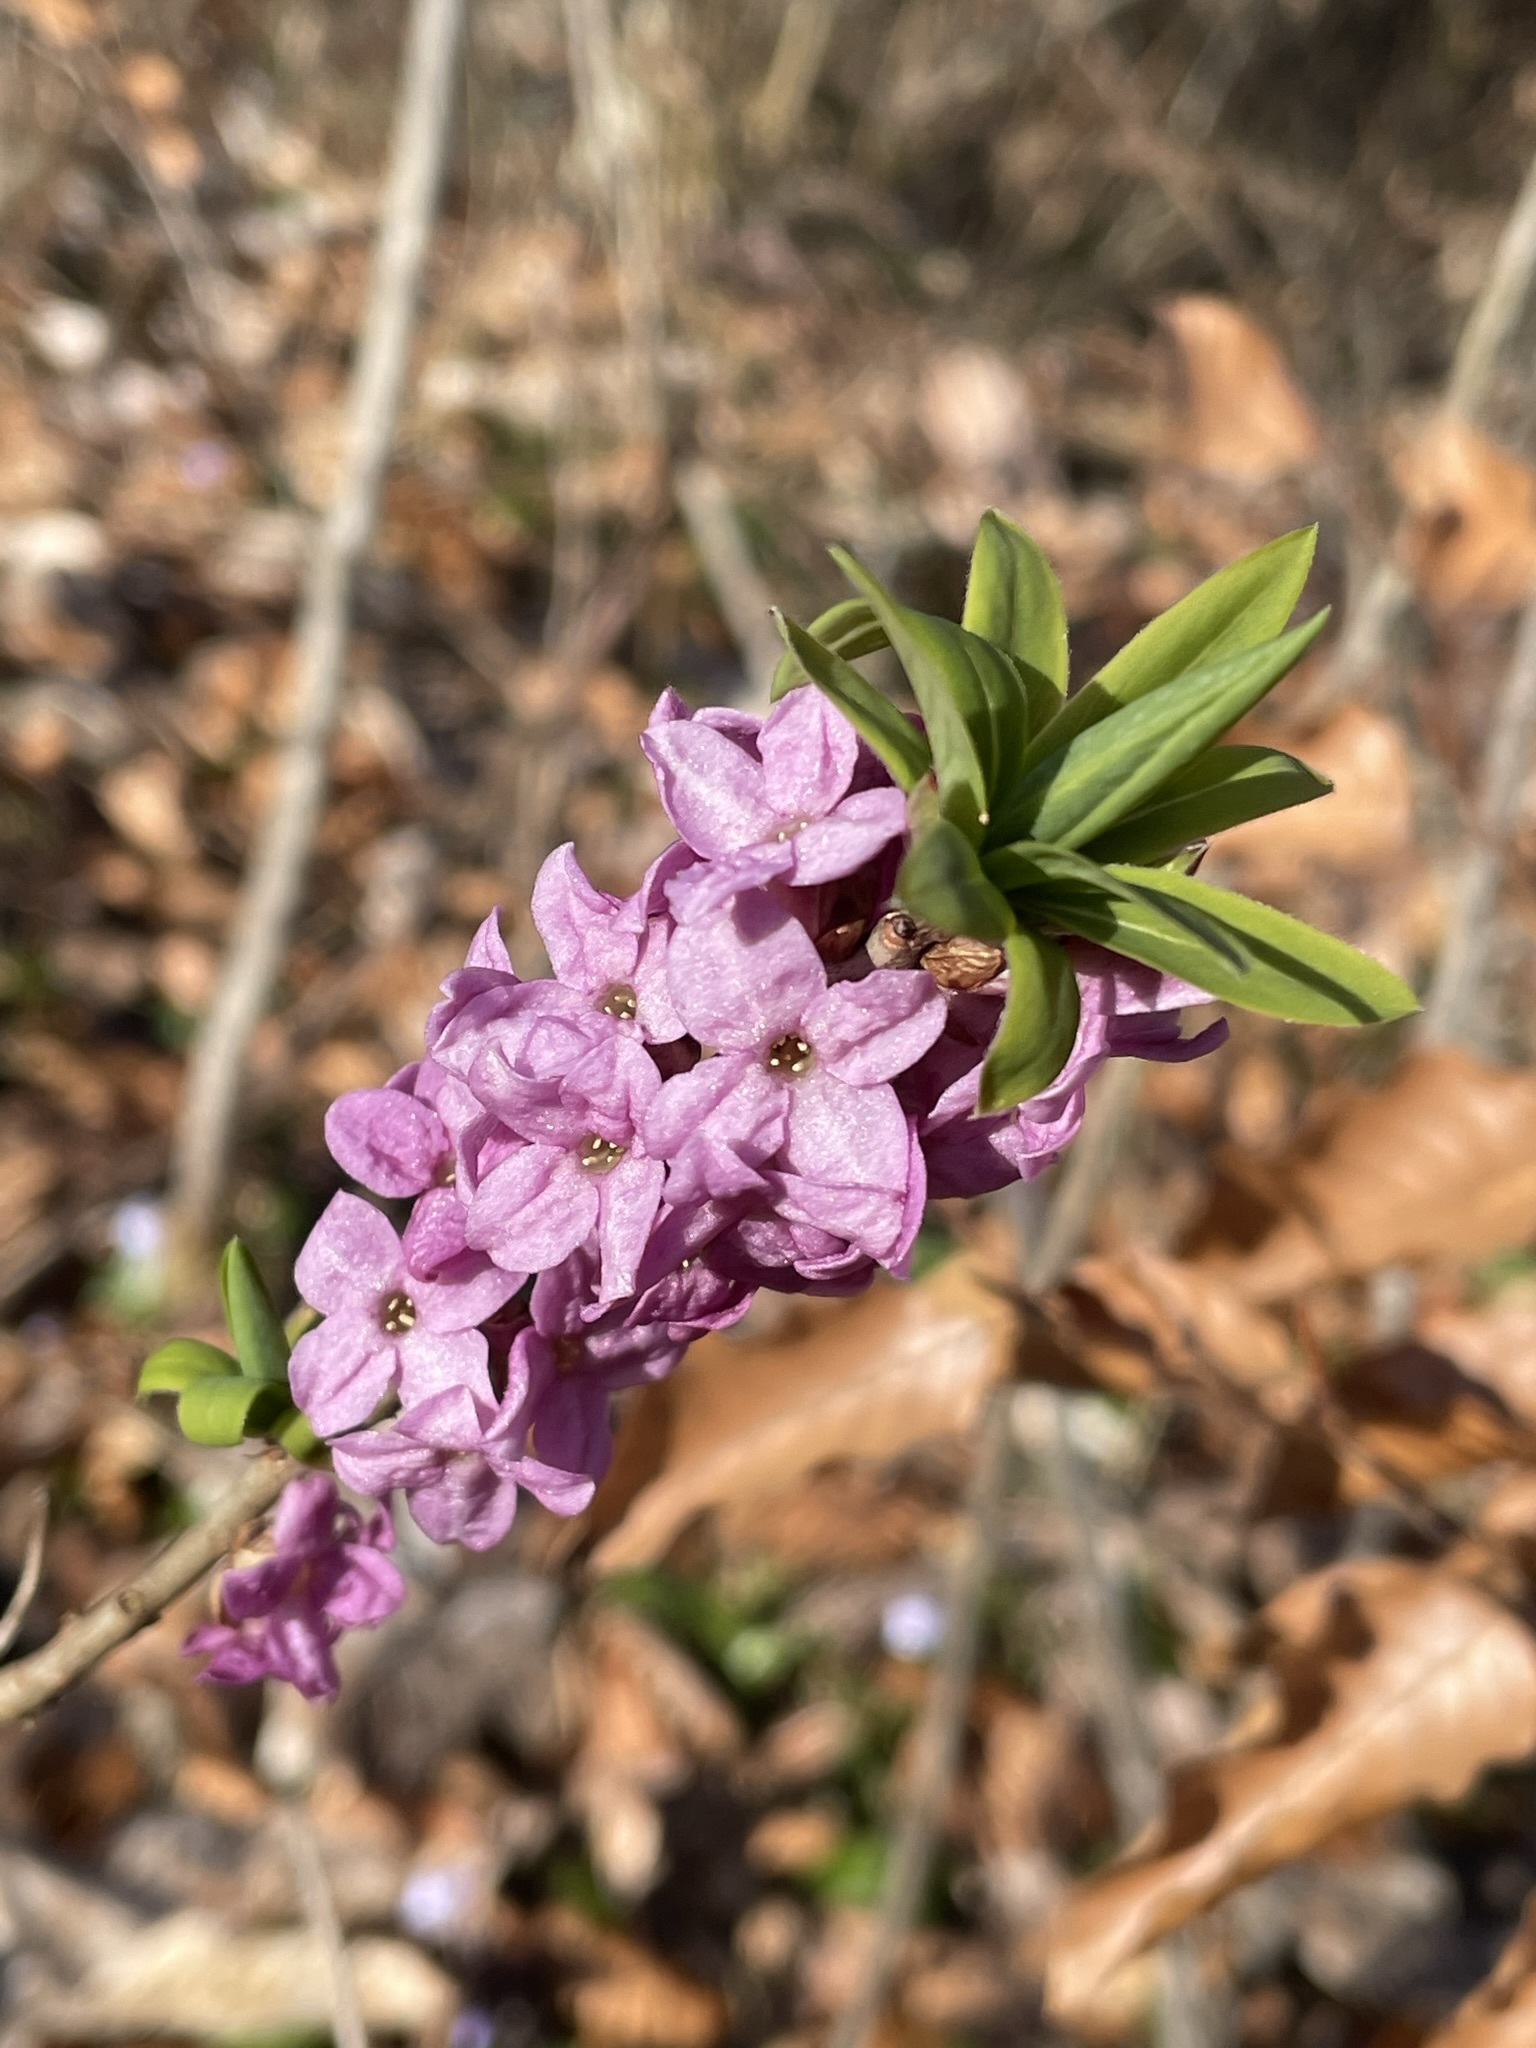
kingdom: Plantae
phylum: Tracheophyta
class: Magnoliopsida
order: Malvales
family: Thymelaeaceae
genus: Daphne
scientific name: Daphne mezereum
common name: Mezereon
